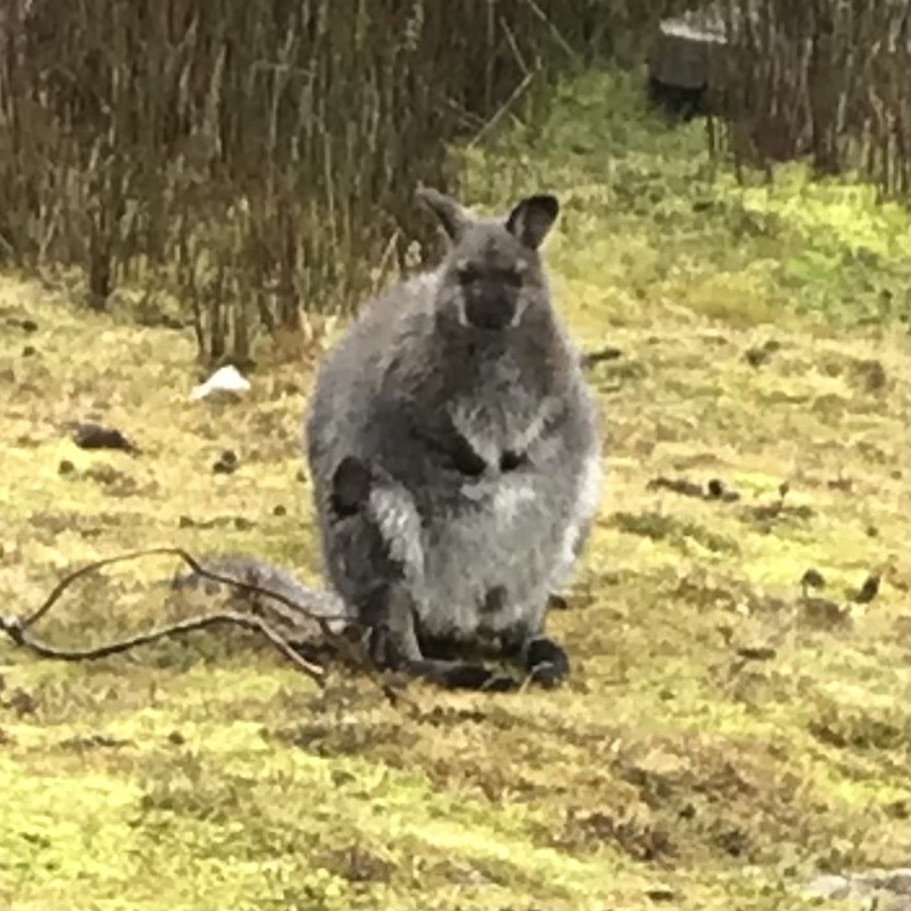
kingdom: Animalia
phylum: Chordata
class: Mammalia
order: Diprotodontia
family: Macropodidae
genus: Notamacropus
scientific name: Notamacropus rufogriseus
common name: Red-necked wallaby
